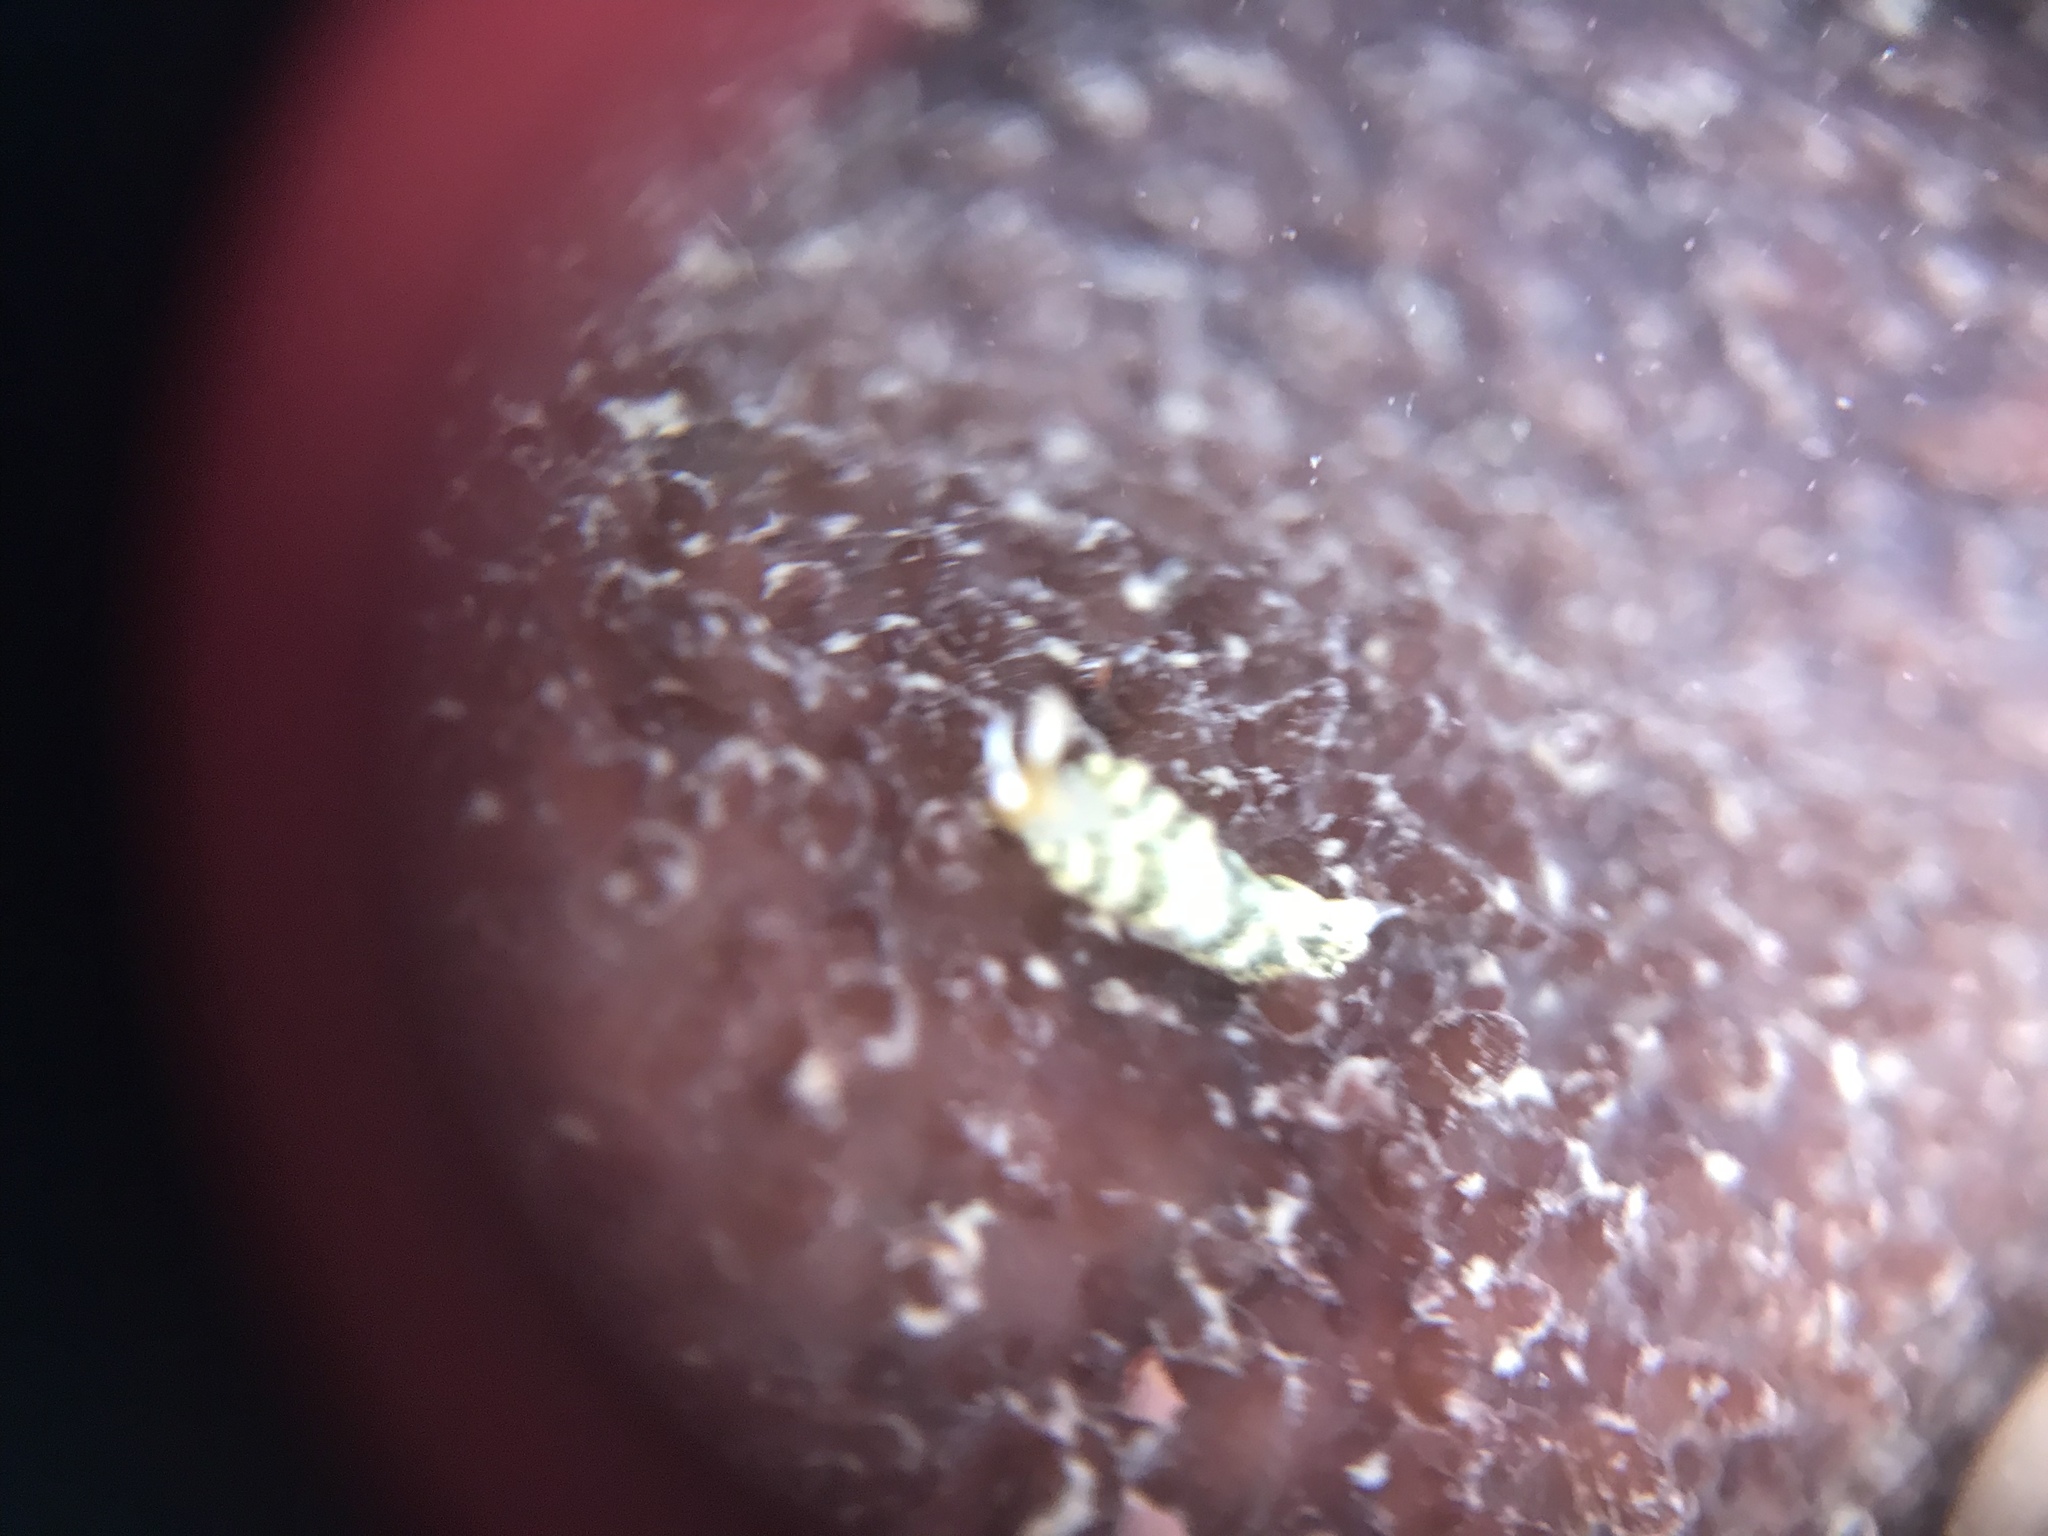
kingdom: Animalia
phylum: Mollusca
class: Gastropoda
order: Nudibranchia
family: Trinchesiidae
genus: Diaphoreolis
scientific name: Diaphoreolis flavovulta
